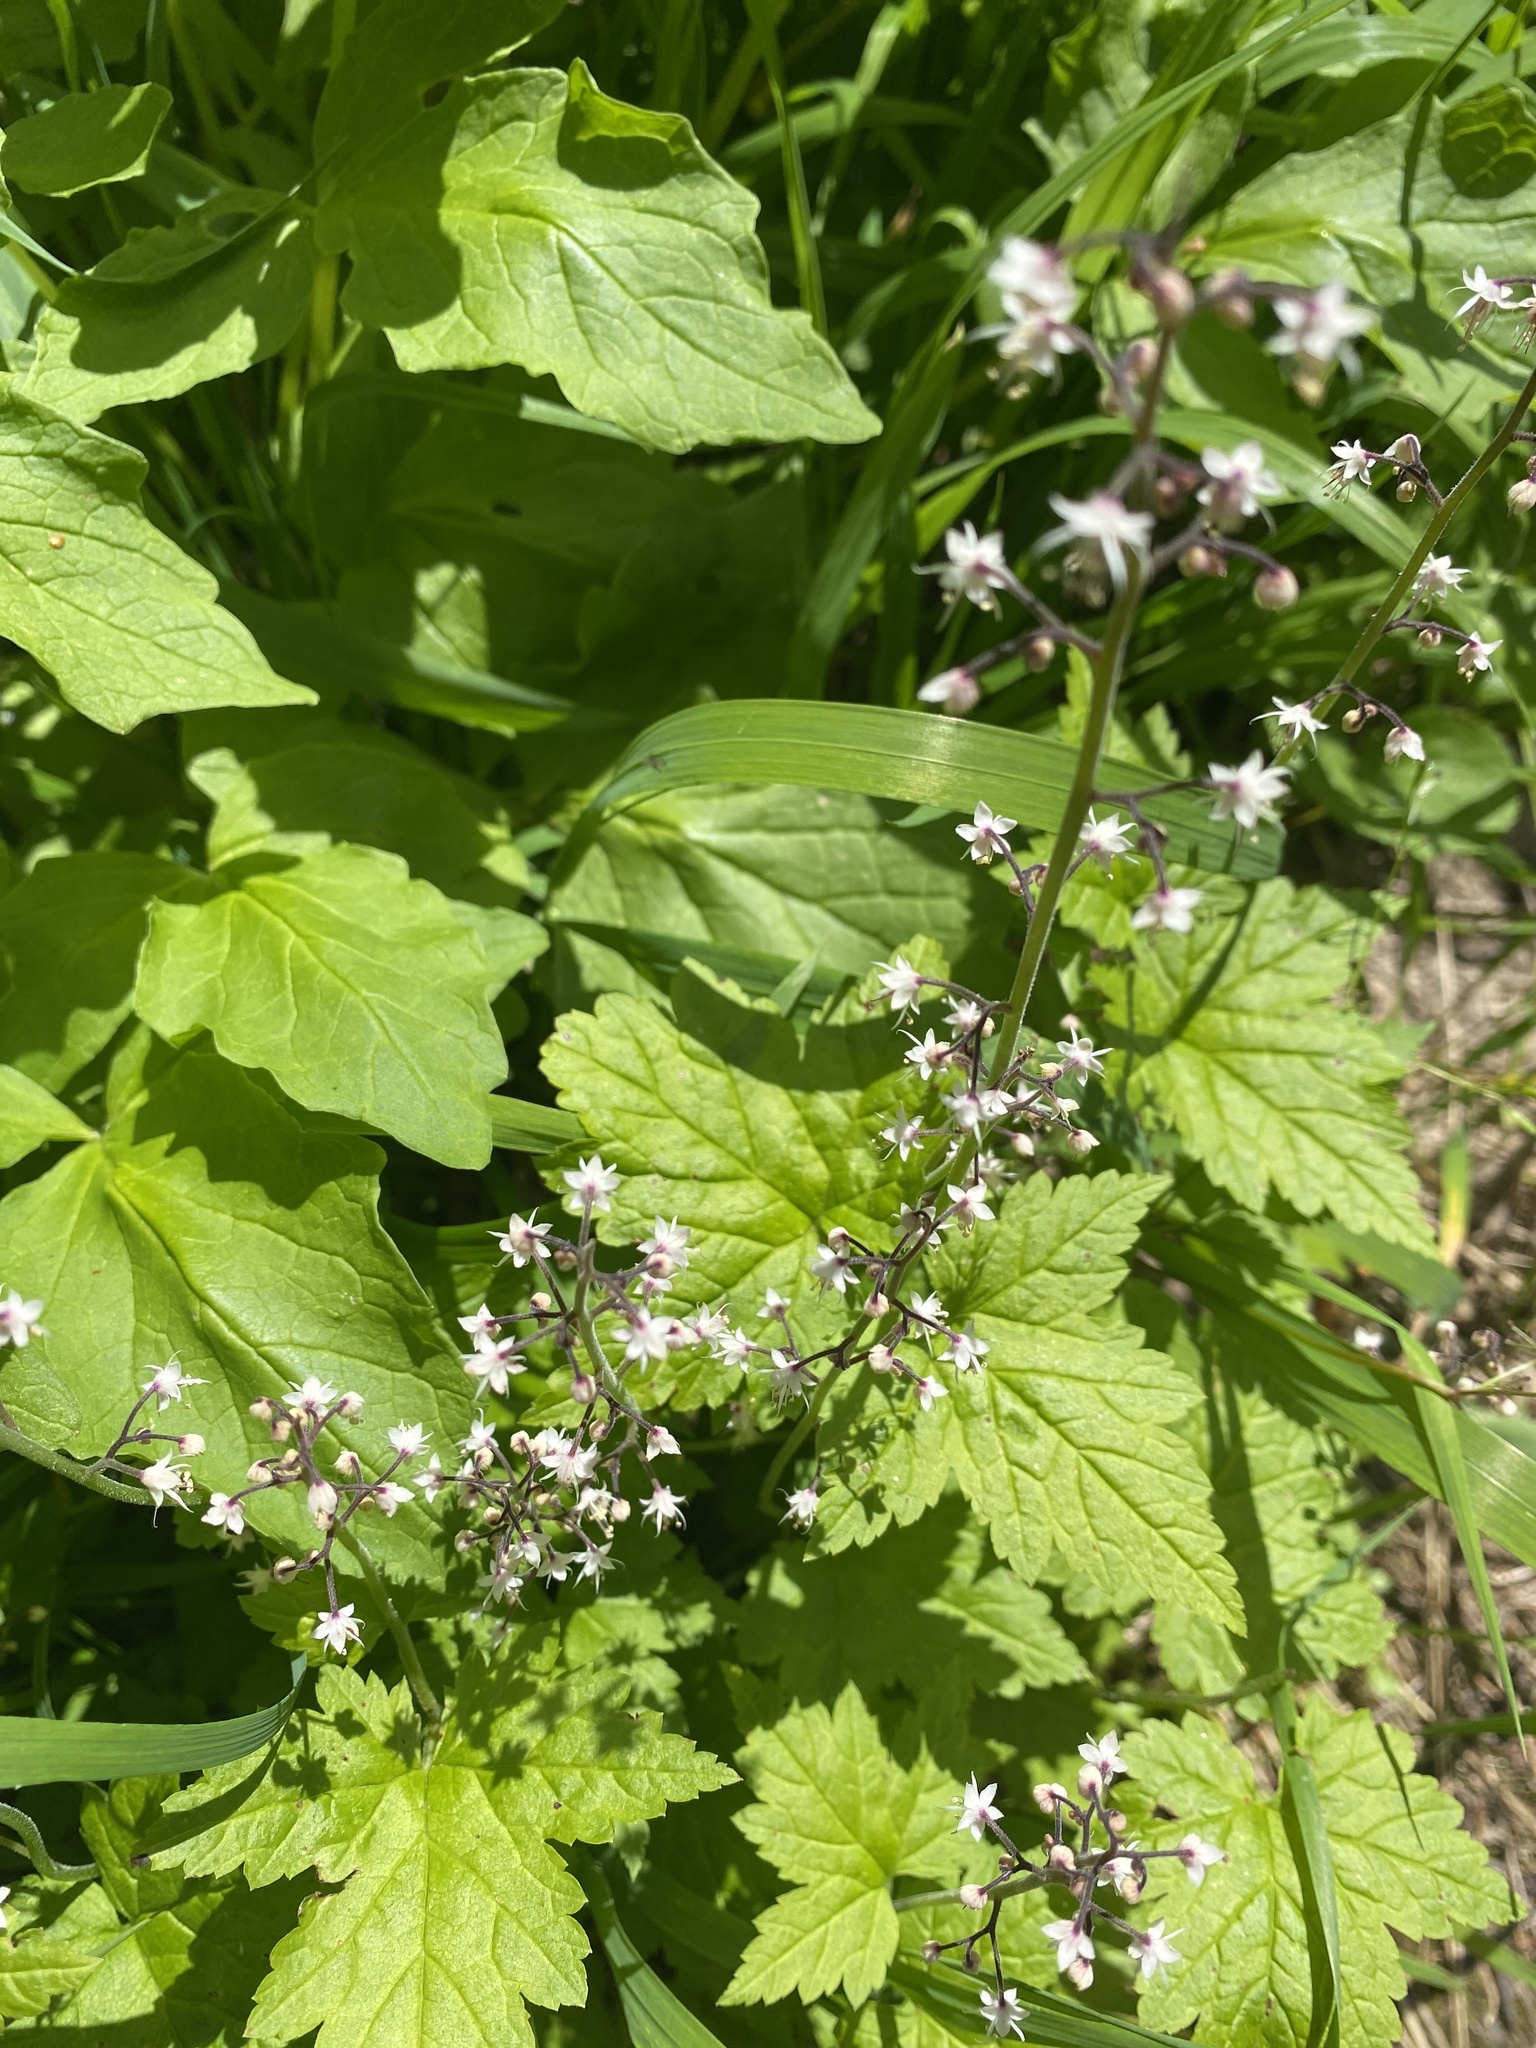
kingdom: Plantae
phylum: Tracheophyta
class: Magnoliopsida
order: Saxifragales
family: Saxifragaceae
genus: Tiarella
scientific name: Tiarella trifoliata
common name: Sugar-scoop
